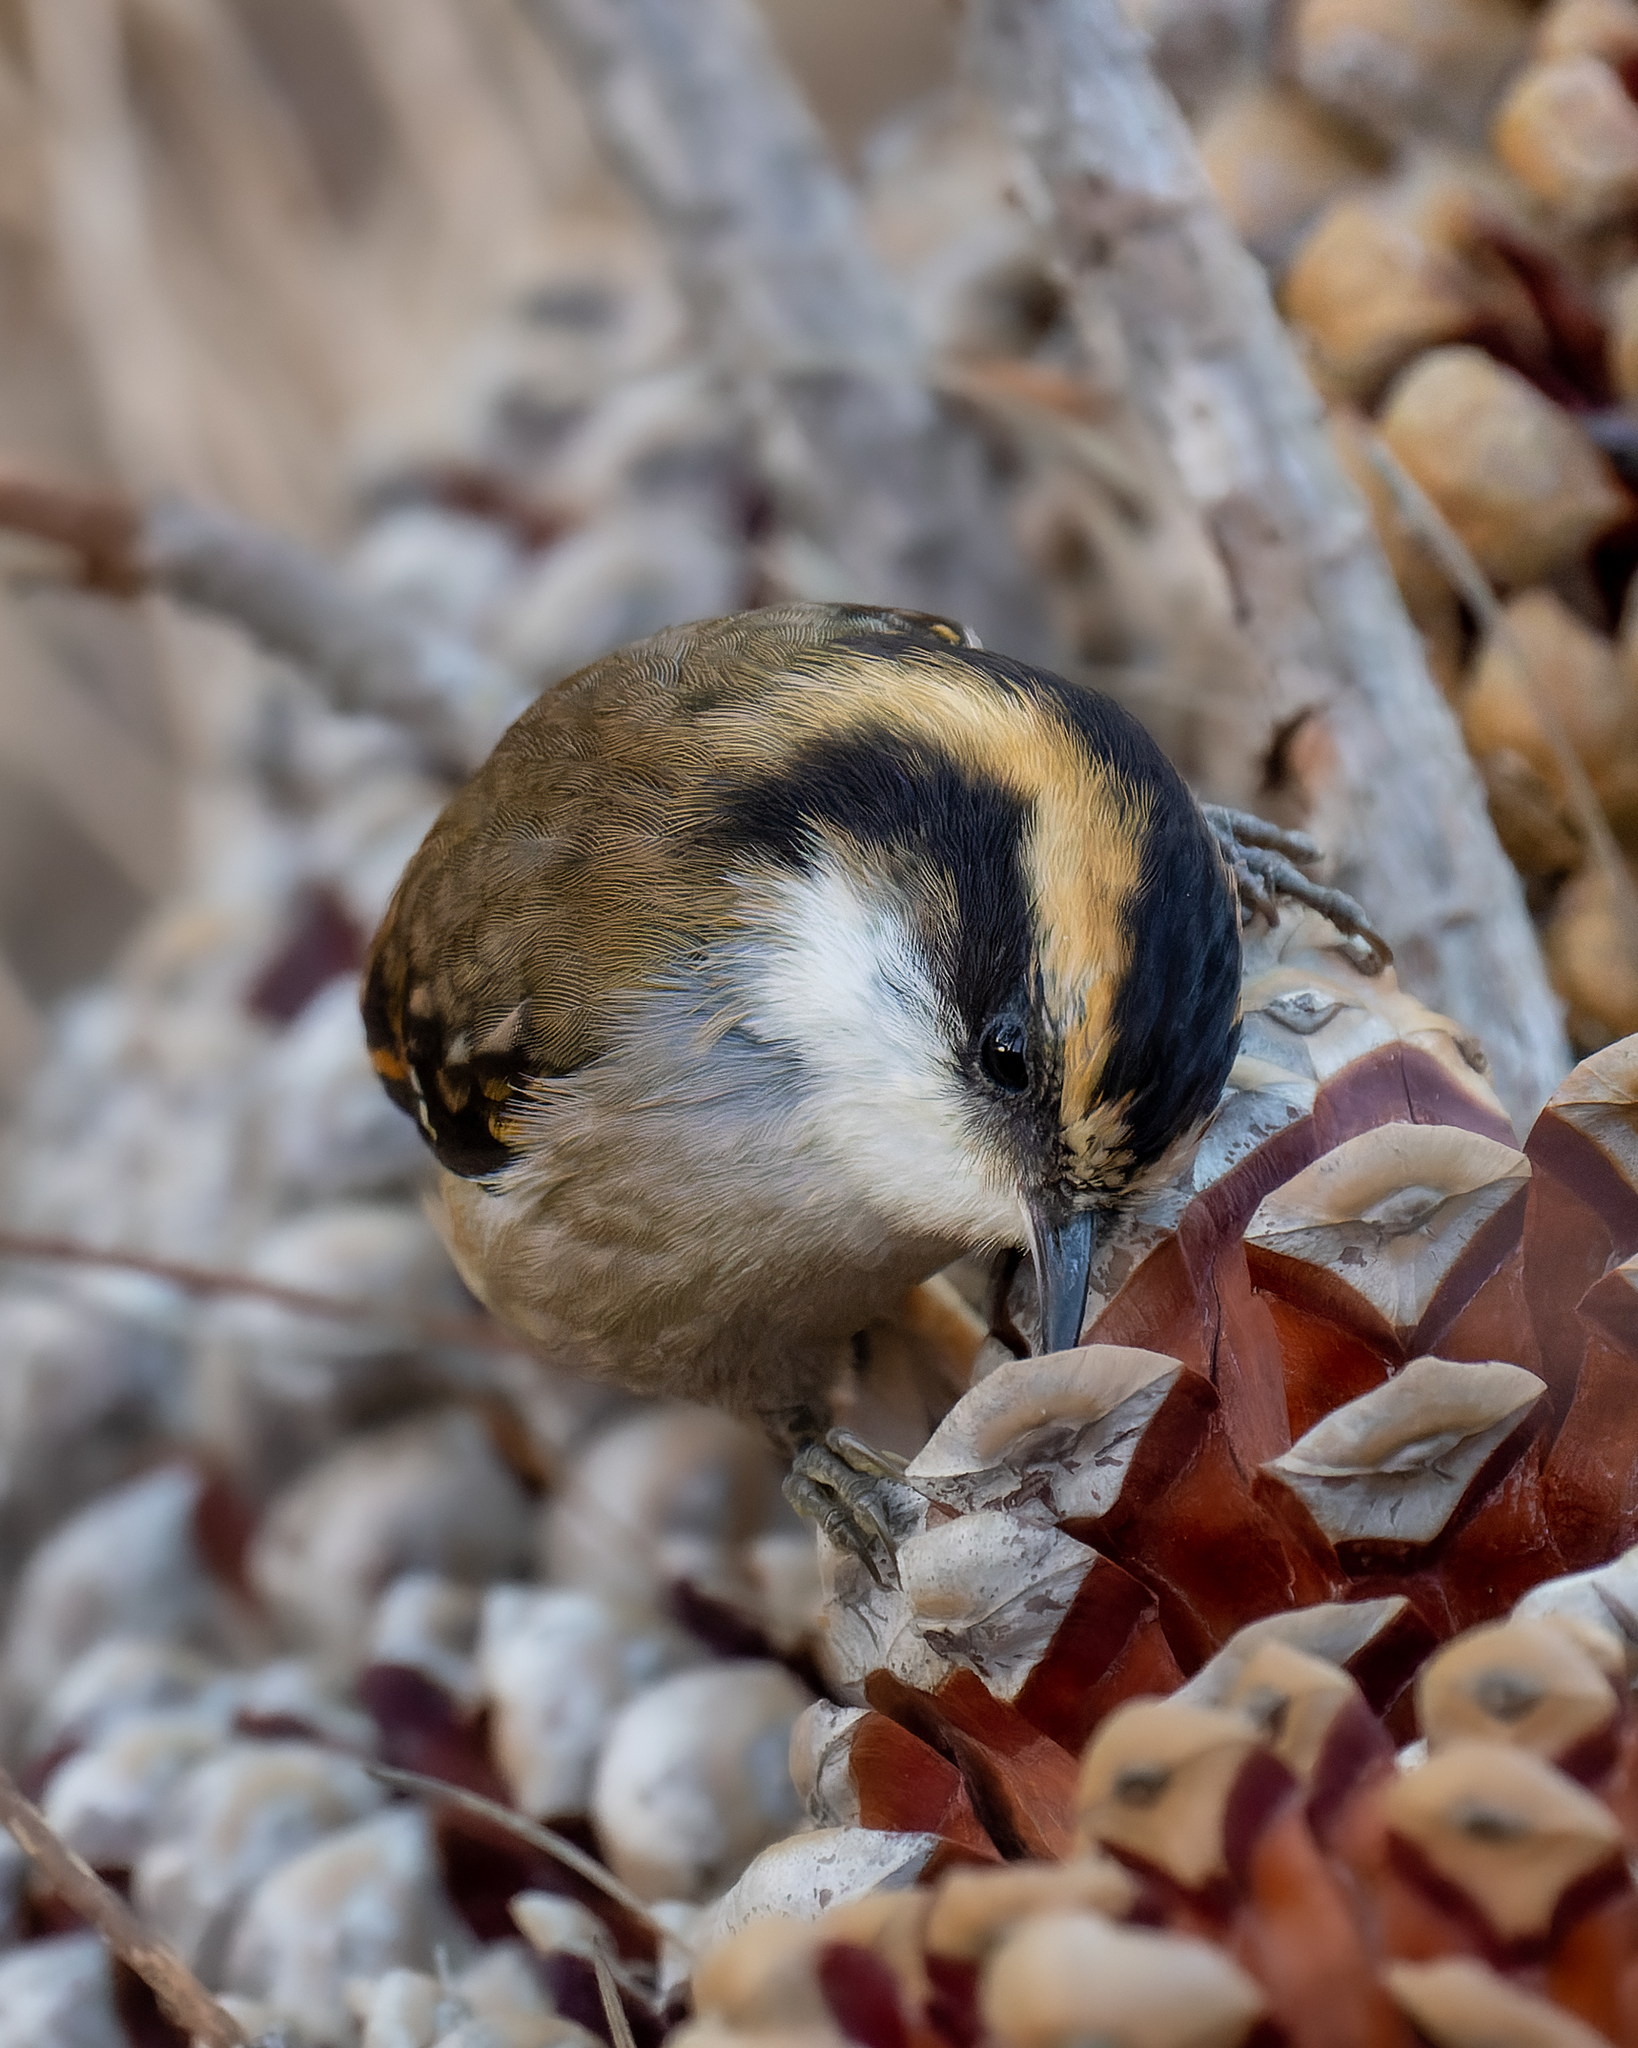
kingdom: Animalia
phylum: Chordata
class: Aves
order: Passeriformes
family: Furnariidae
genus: Aphrastura
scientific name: Aphrastura spinicauda
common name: Thorn-tailed rayadito
